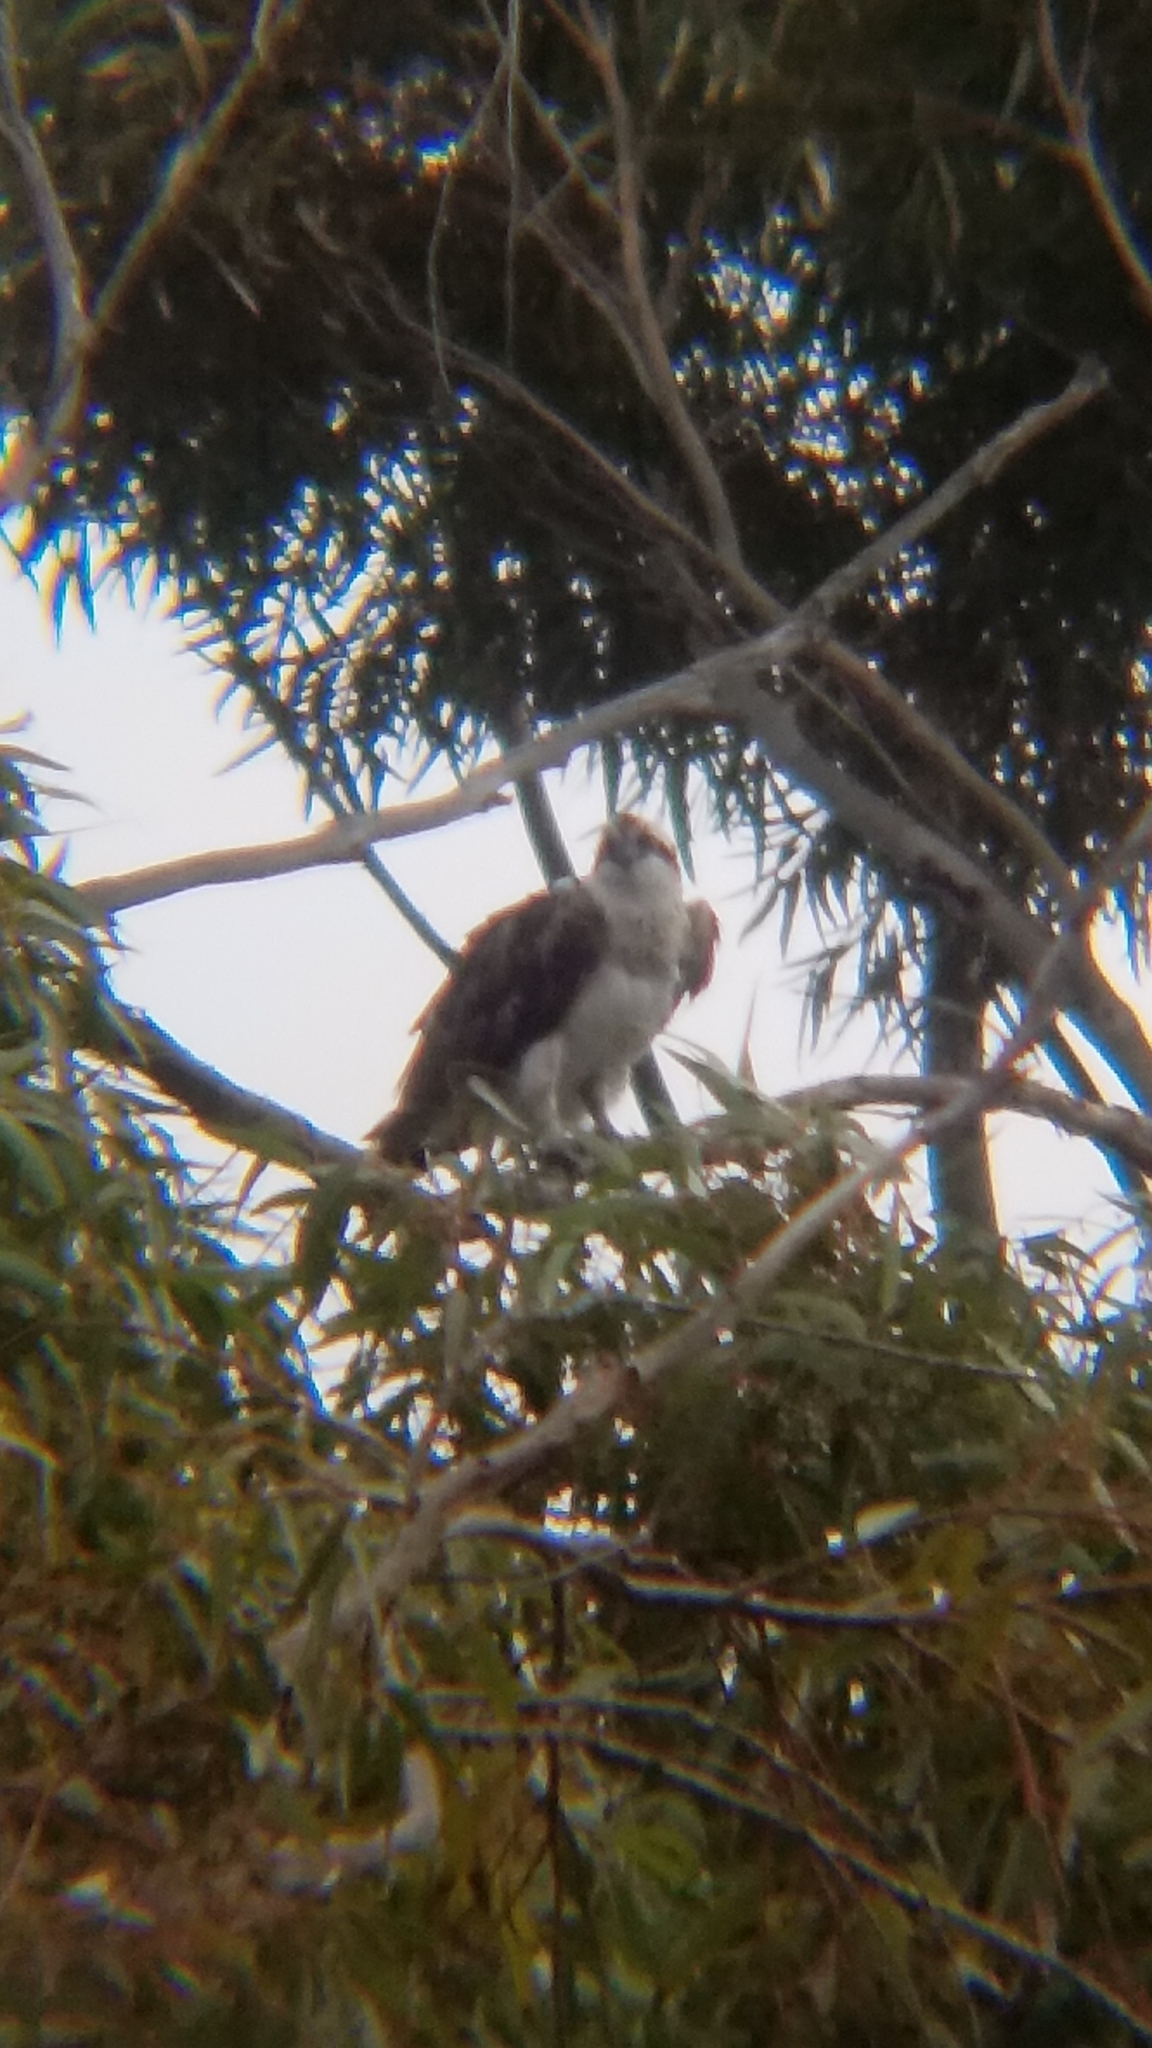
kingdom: Animalia
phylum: Chordata
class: Aves
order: Accipitriformes
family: Pandionidae
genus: Pandion
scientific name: Pandion haliaetus
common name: Osprey
